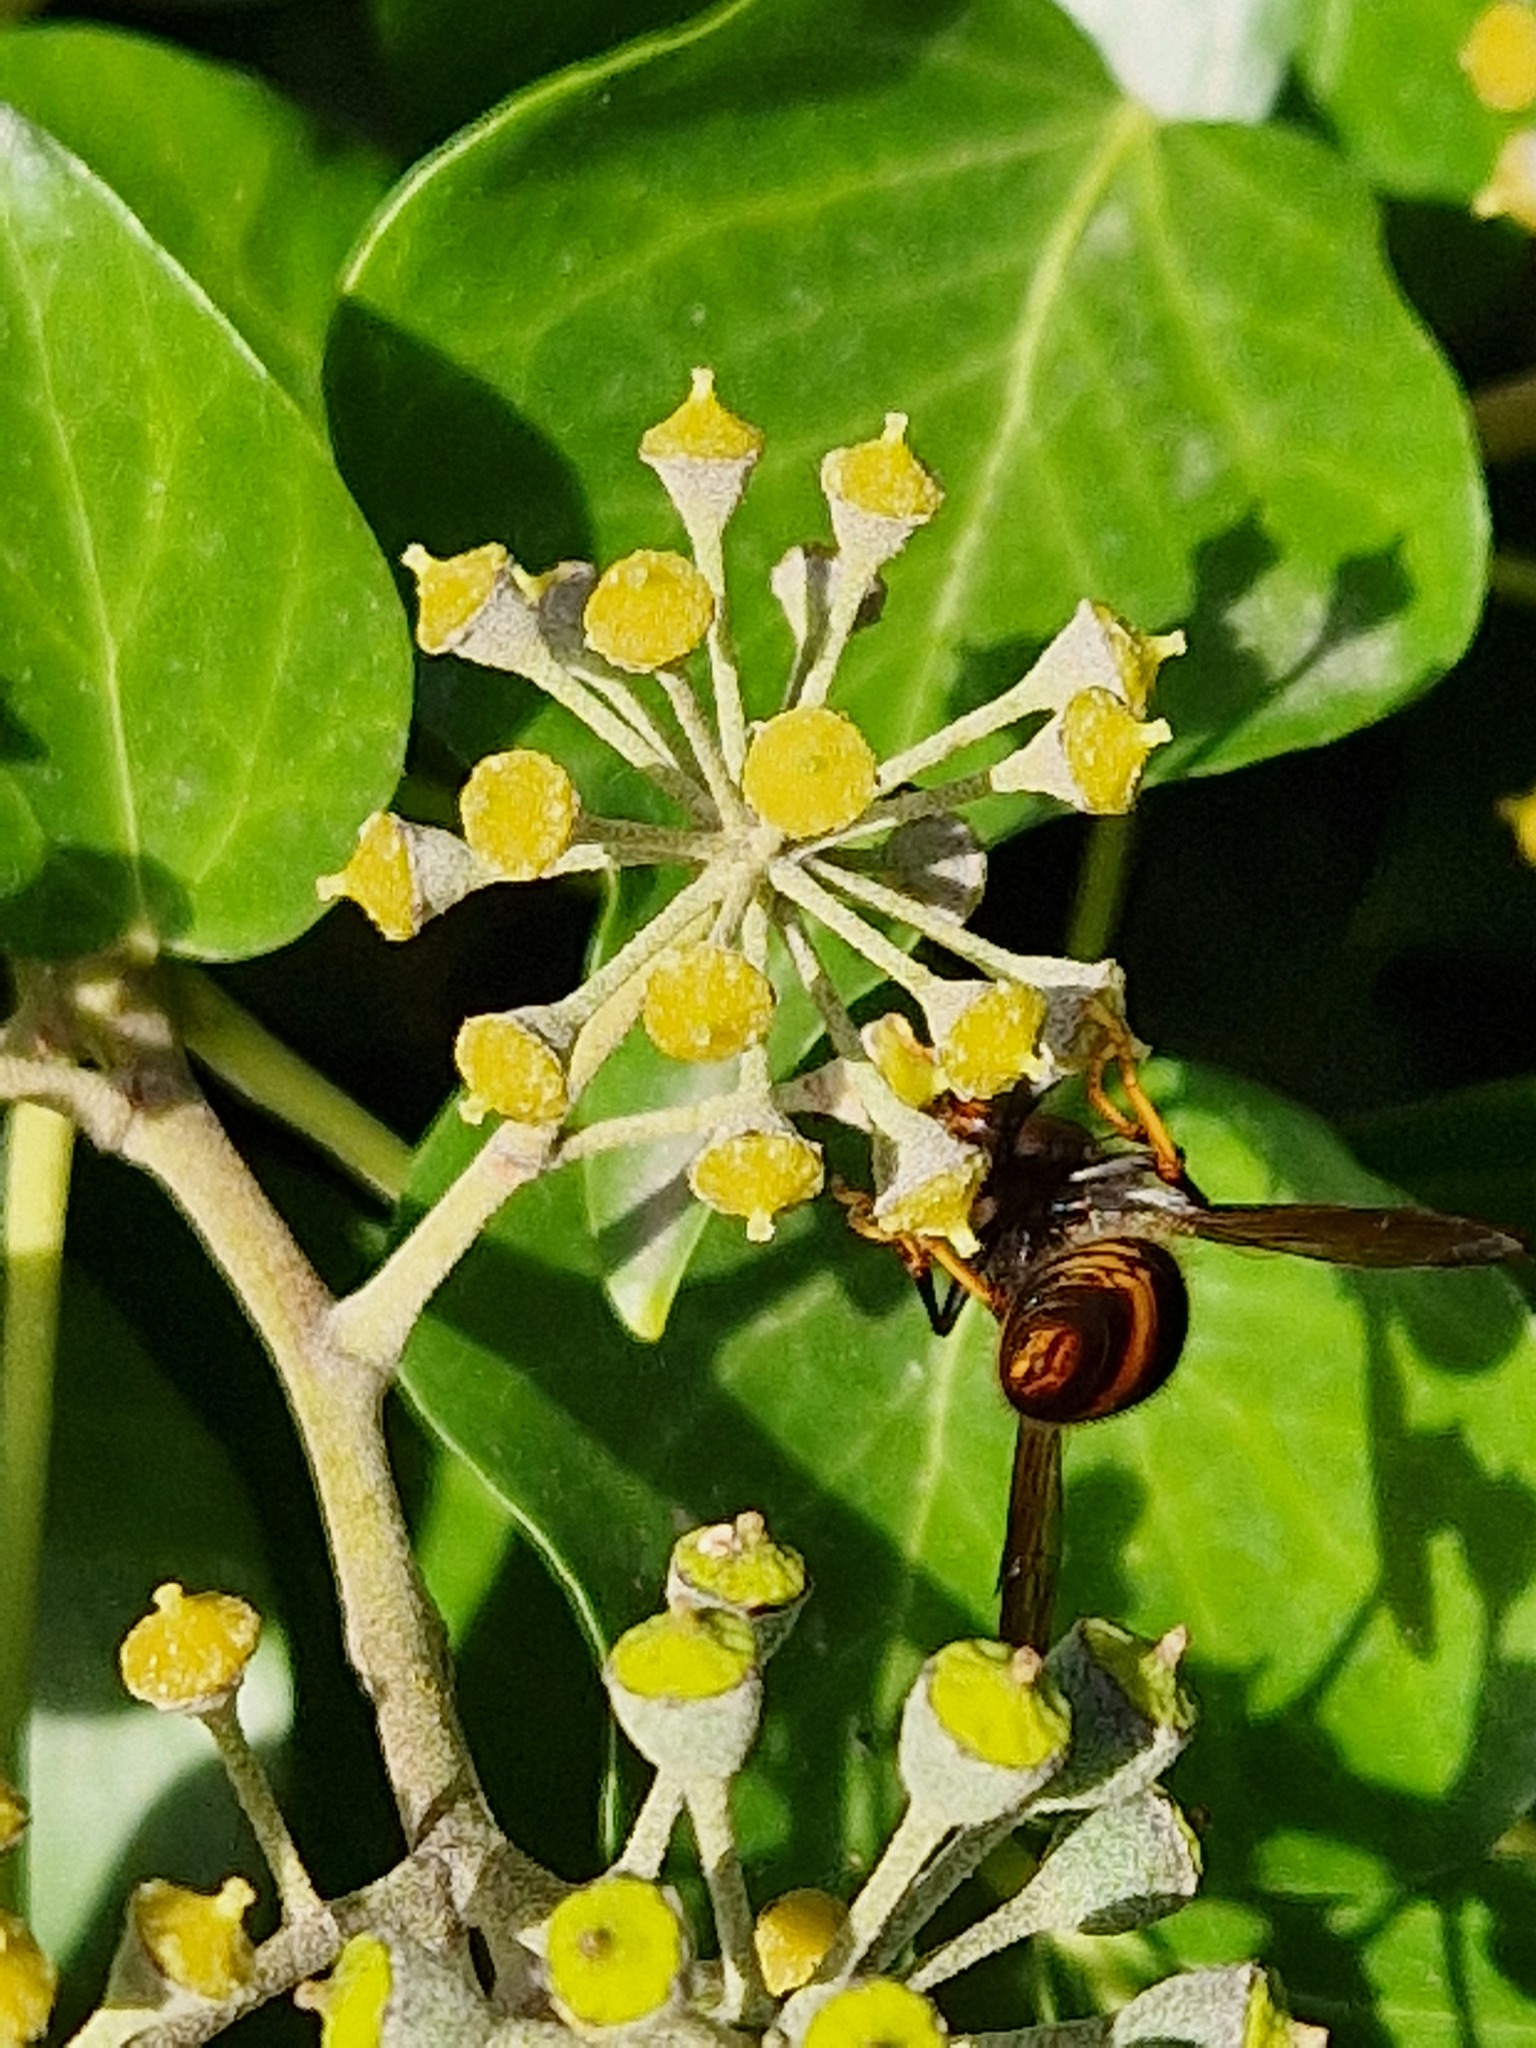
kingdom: Animalia
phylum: Arthropoda
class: Insecta
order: Hymenoptera
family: Vespidae
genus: Vespa
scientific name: Vespa velutina
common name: Asian hornet
